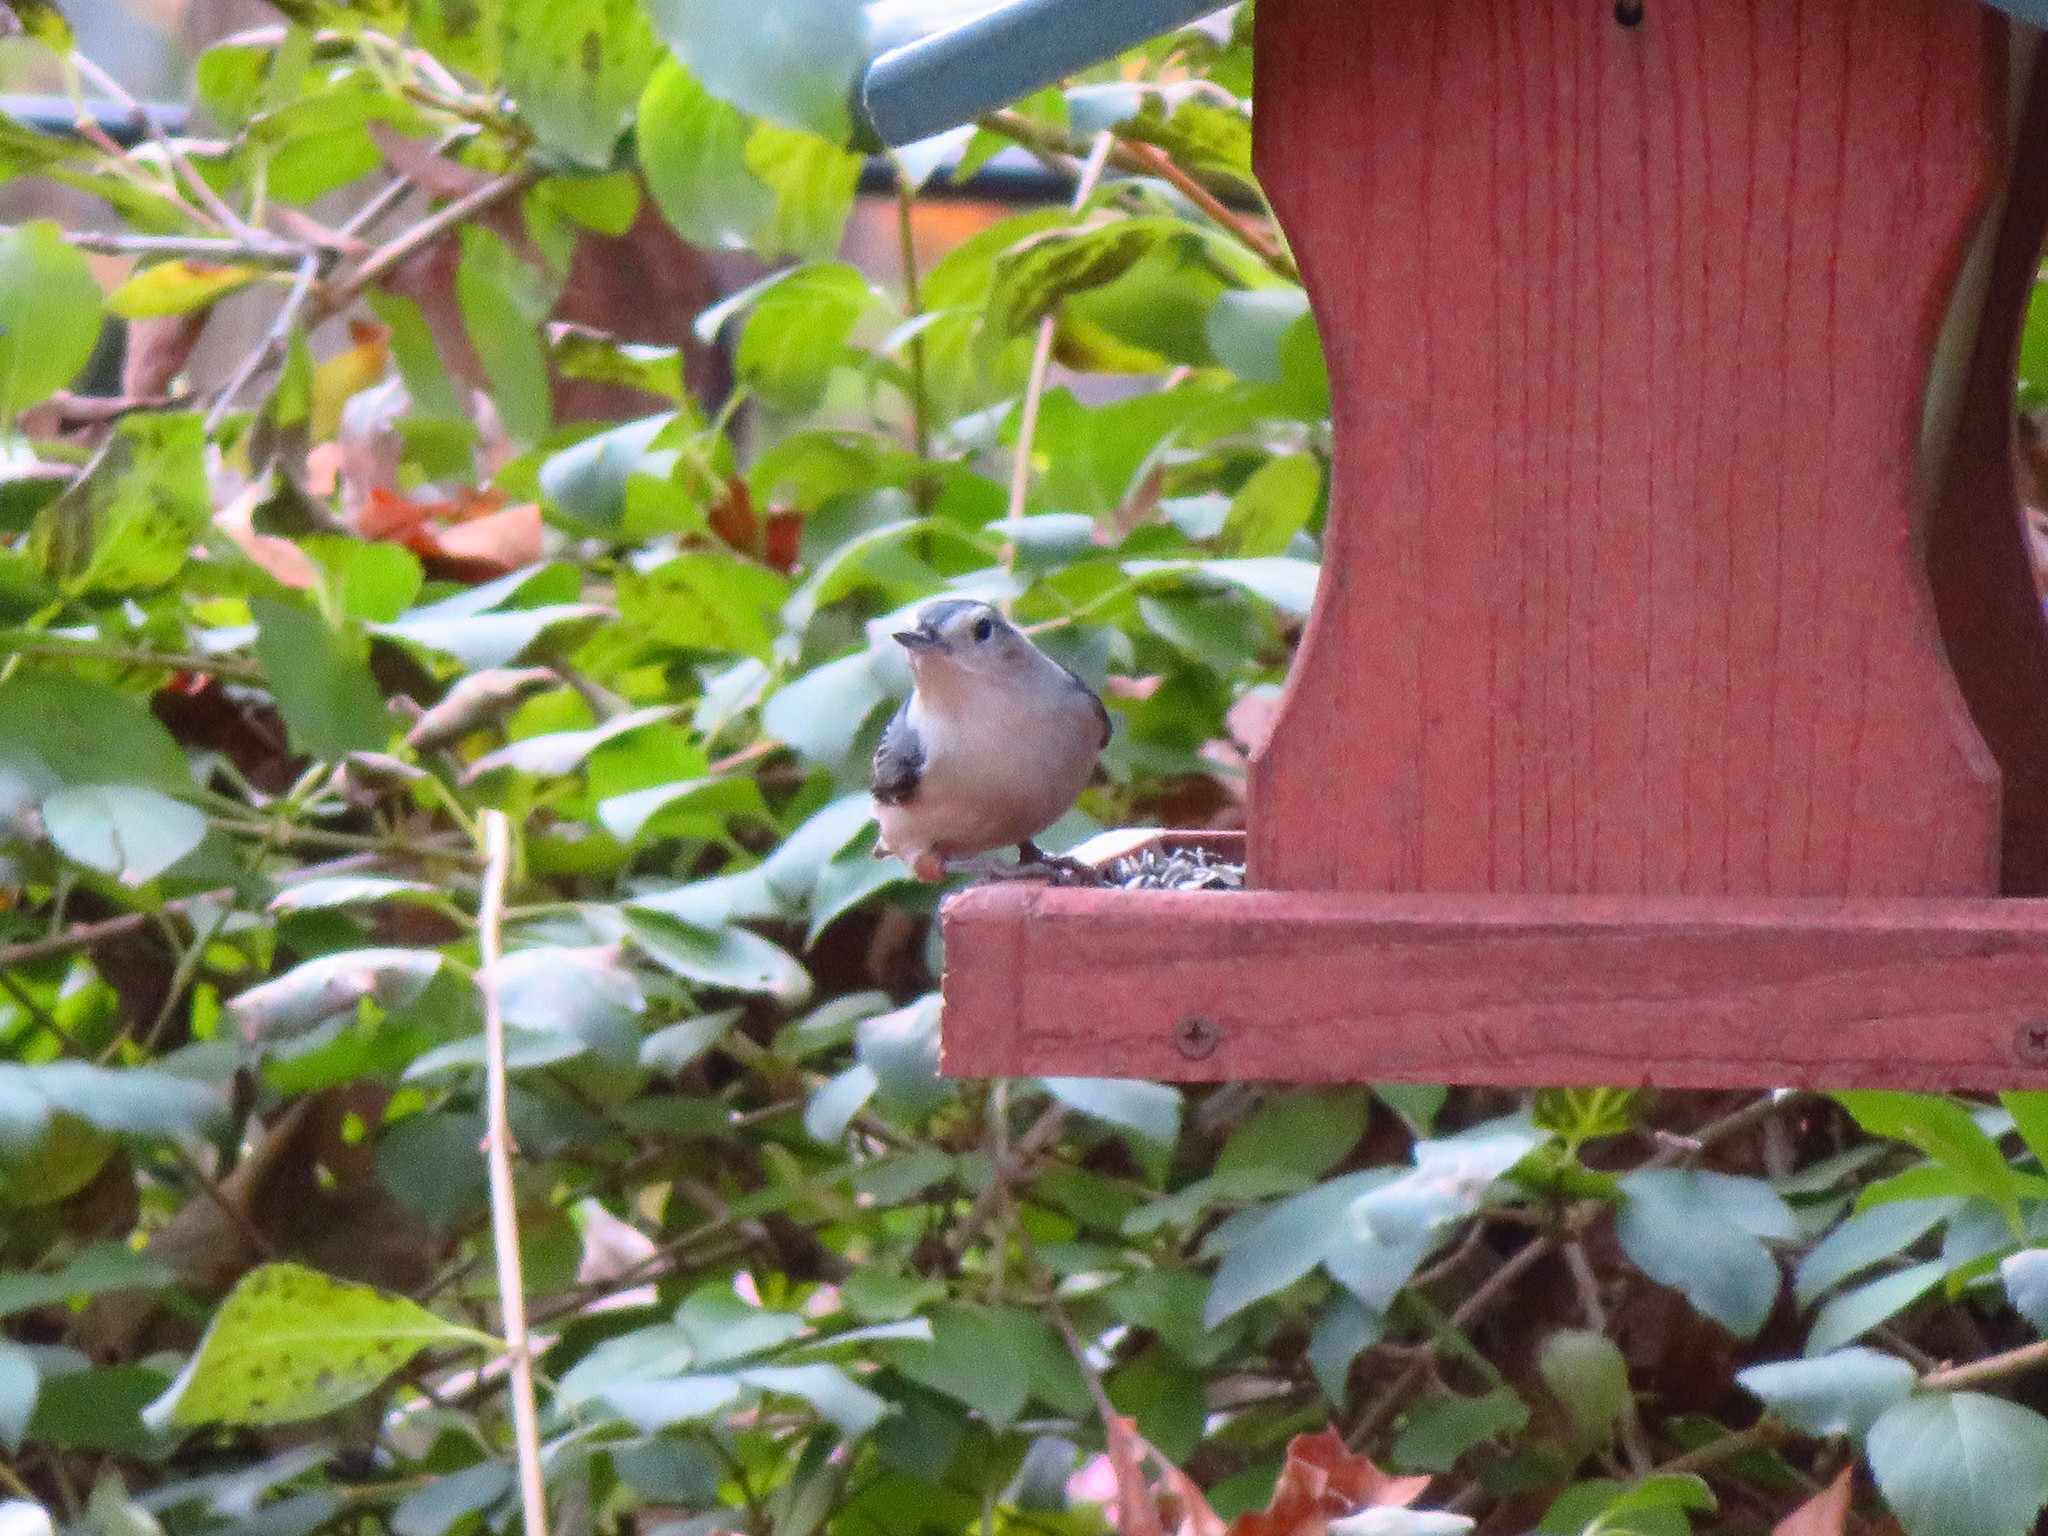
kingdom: Animalia
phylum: Chordata
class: Aves
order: Passeriformes
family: Sittidae
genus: Sitta
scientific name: Sitta carolinensis
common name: White-breasted nuthatch
